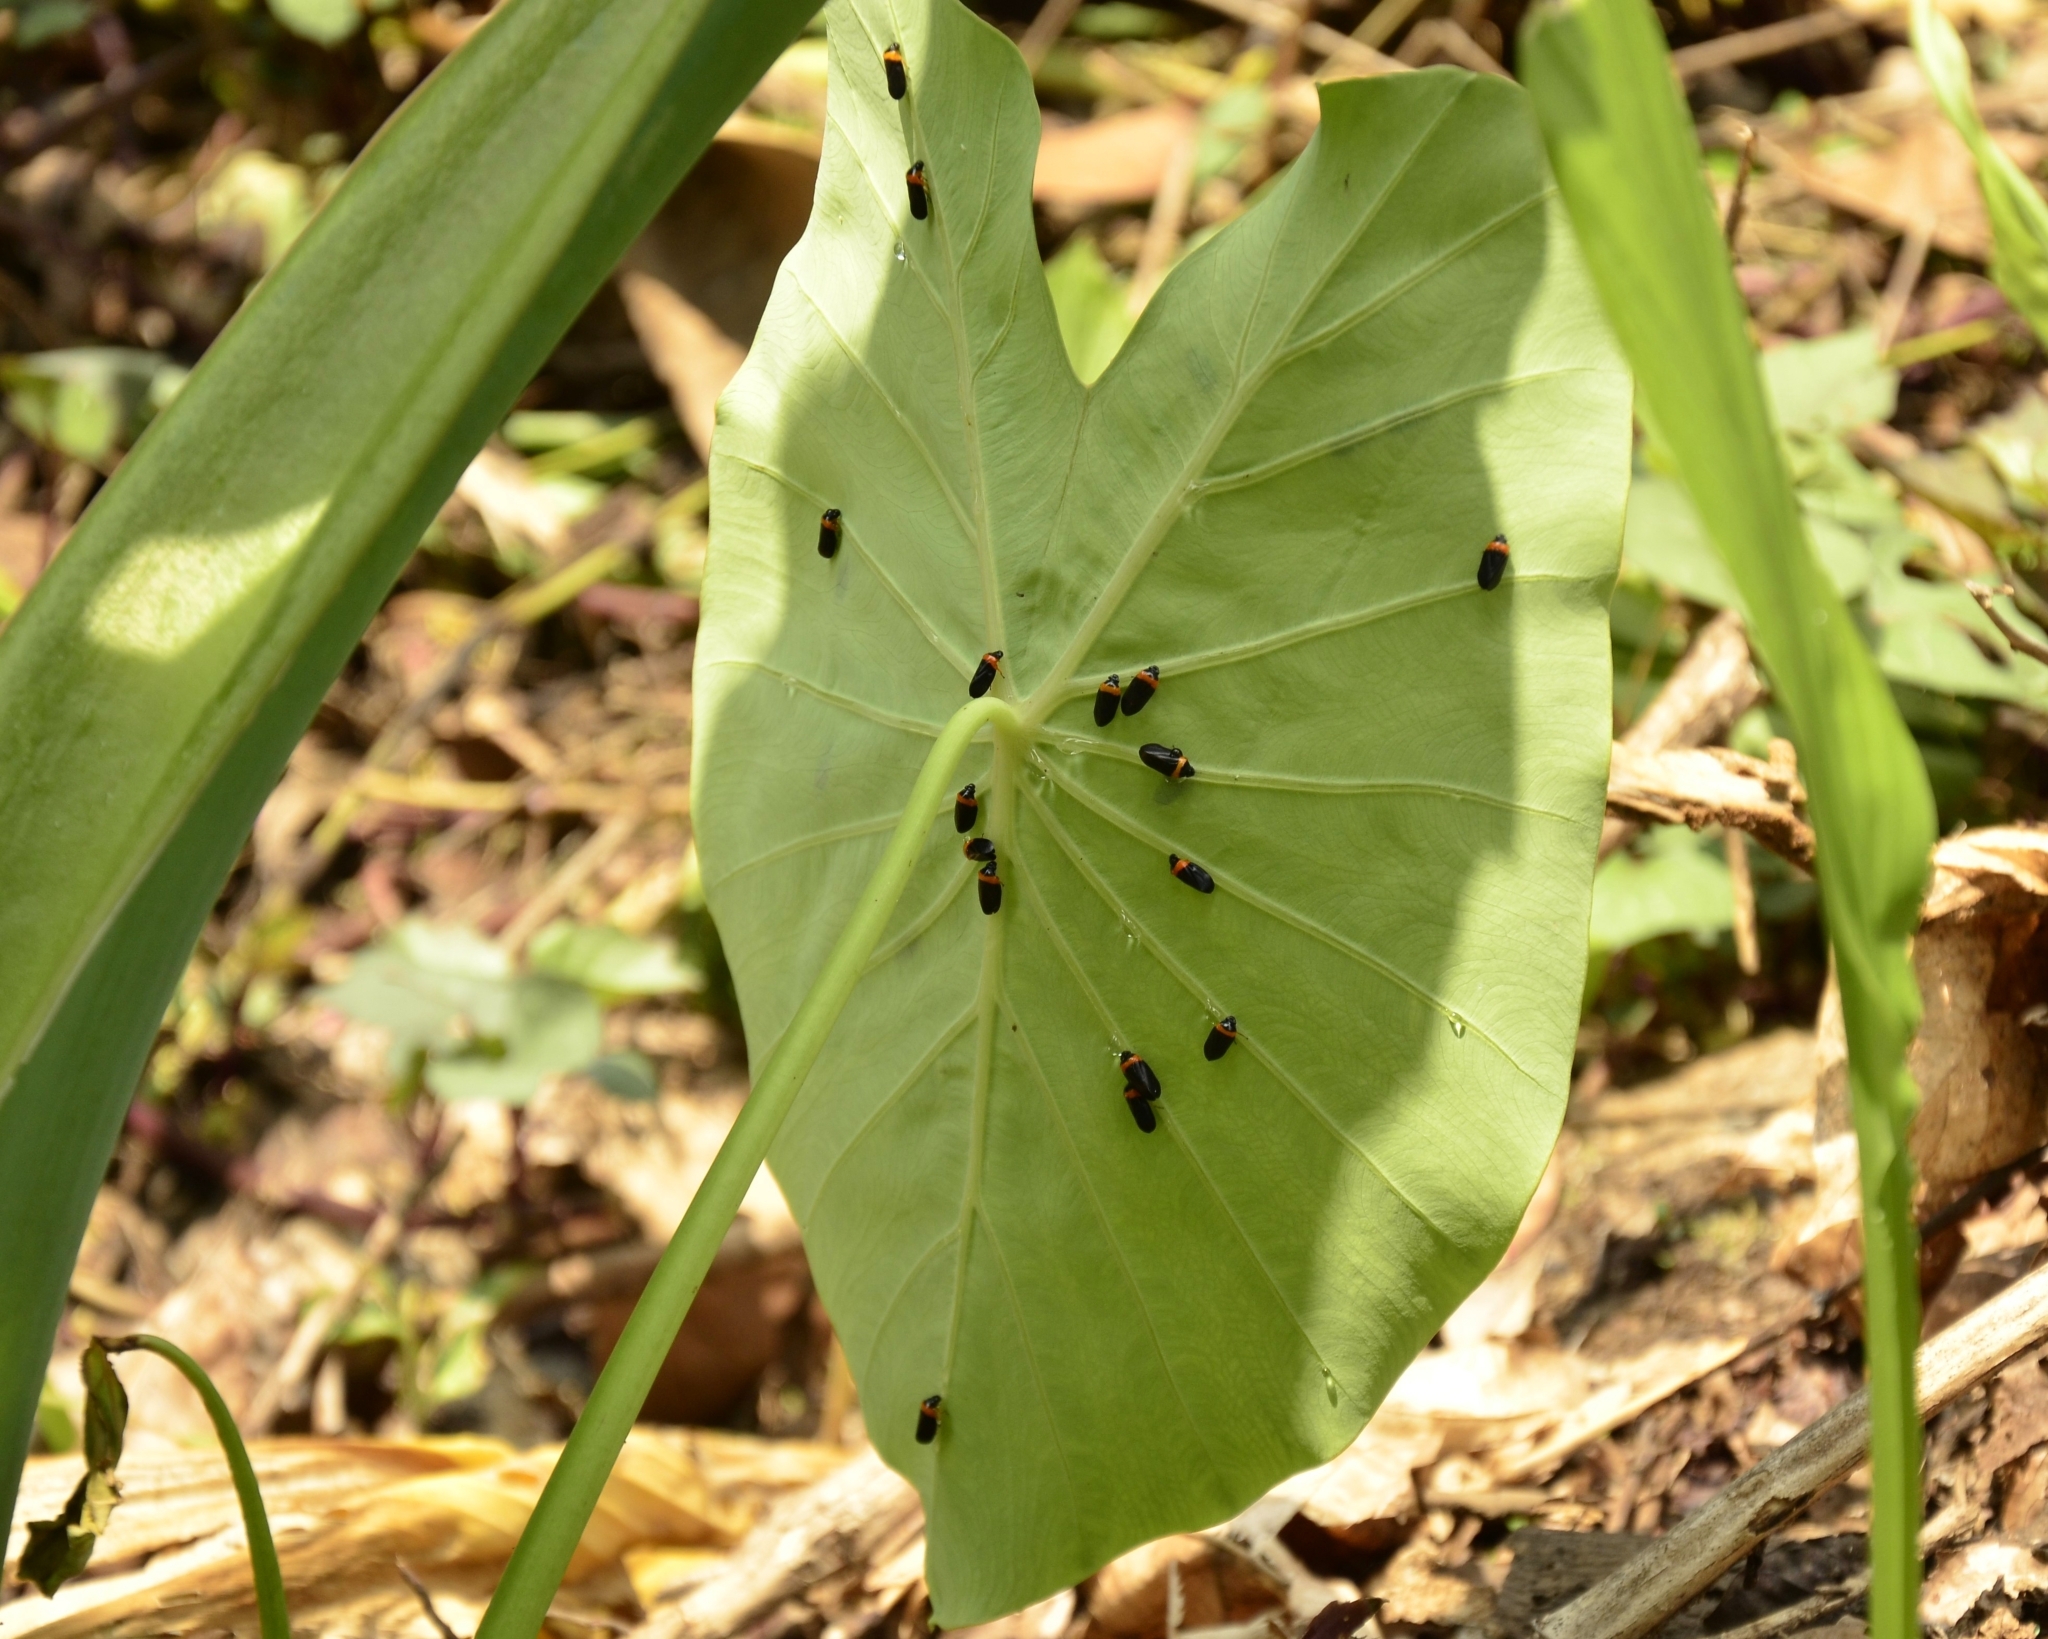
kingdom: Animalia
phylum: Arthropoda
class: Insecta
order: Hemiptera
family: Cercopidae
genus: Phymatostetha
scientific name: Phymatostetha deschampsi
